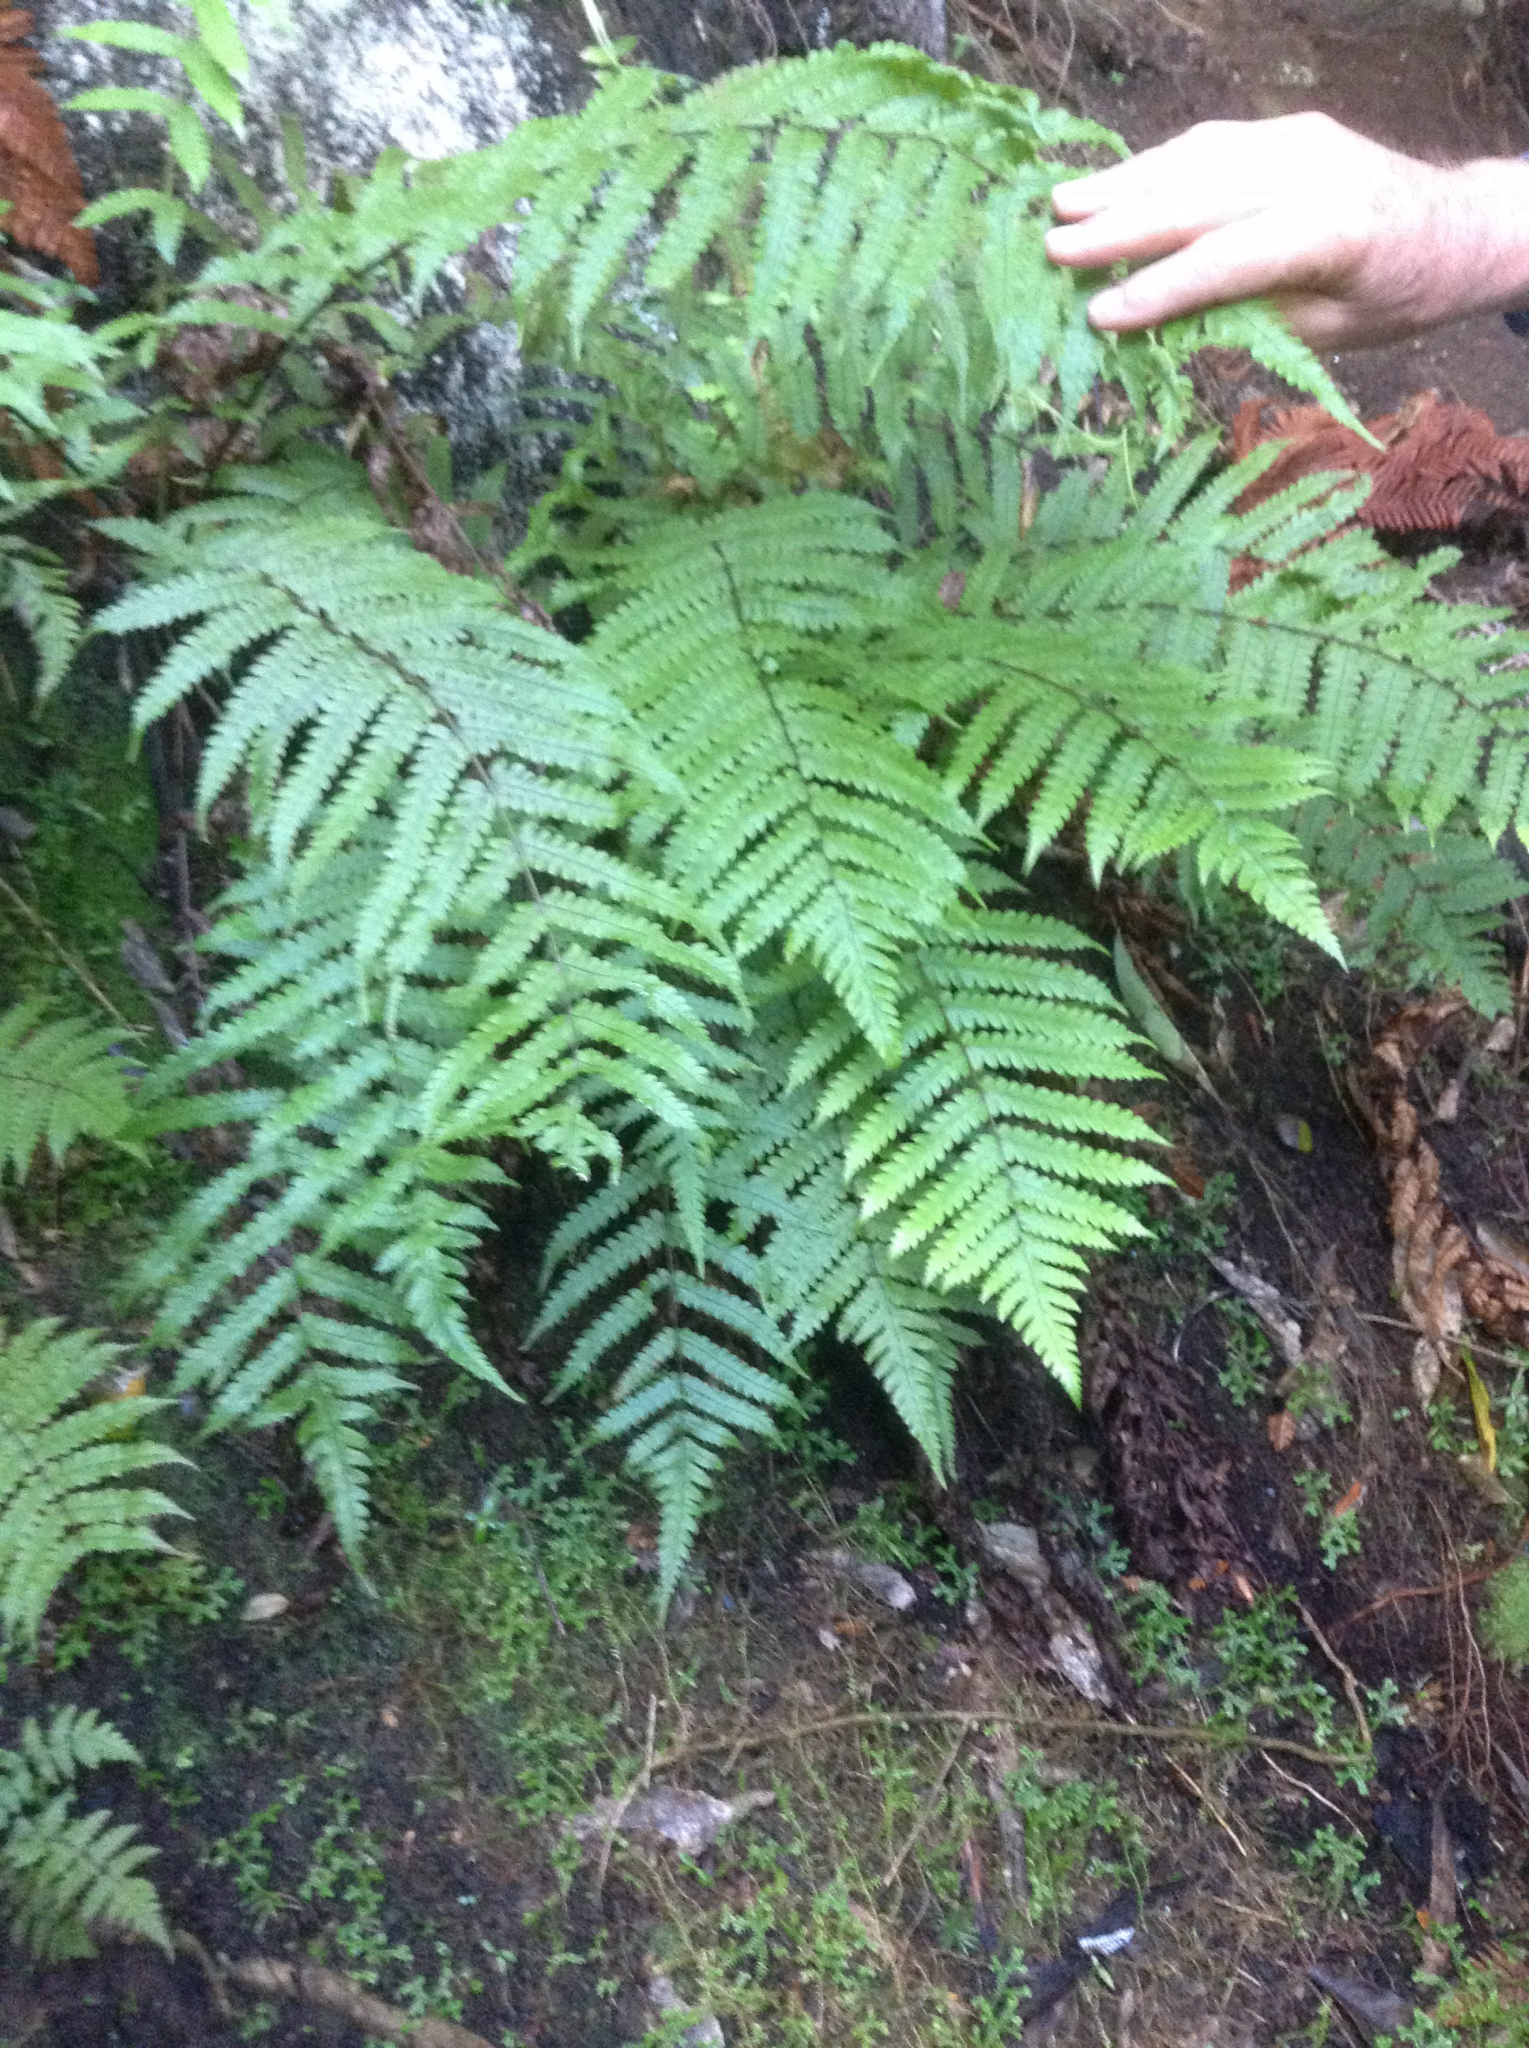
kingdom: Plantae
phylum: Tracheophyta
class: Polypodiopsida
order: Polypodiales
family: Thelypteridaceae
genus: Pakau
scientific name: Pakau pennigera
